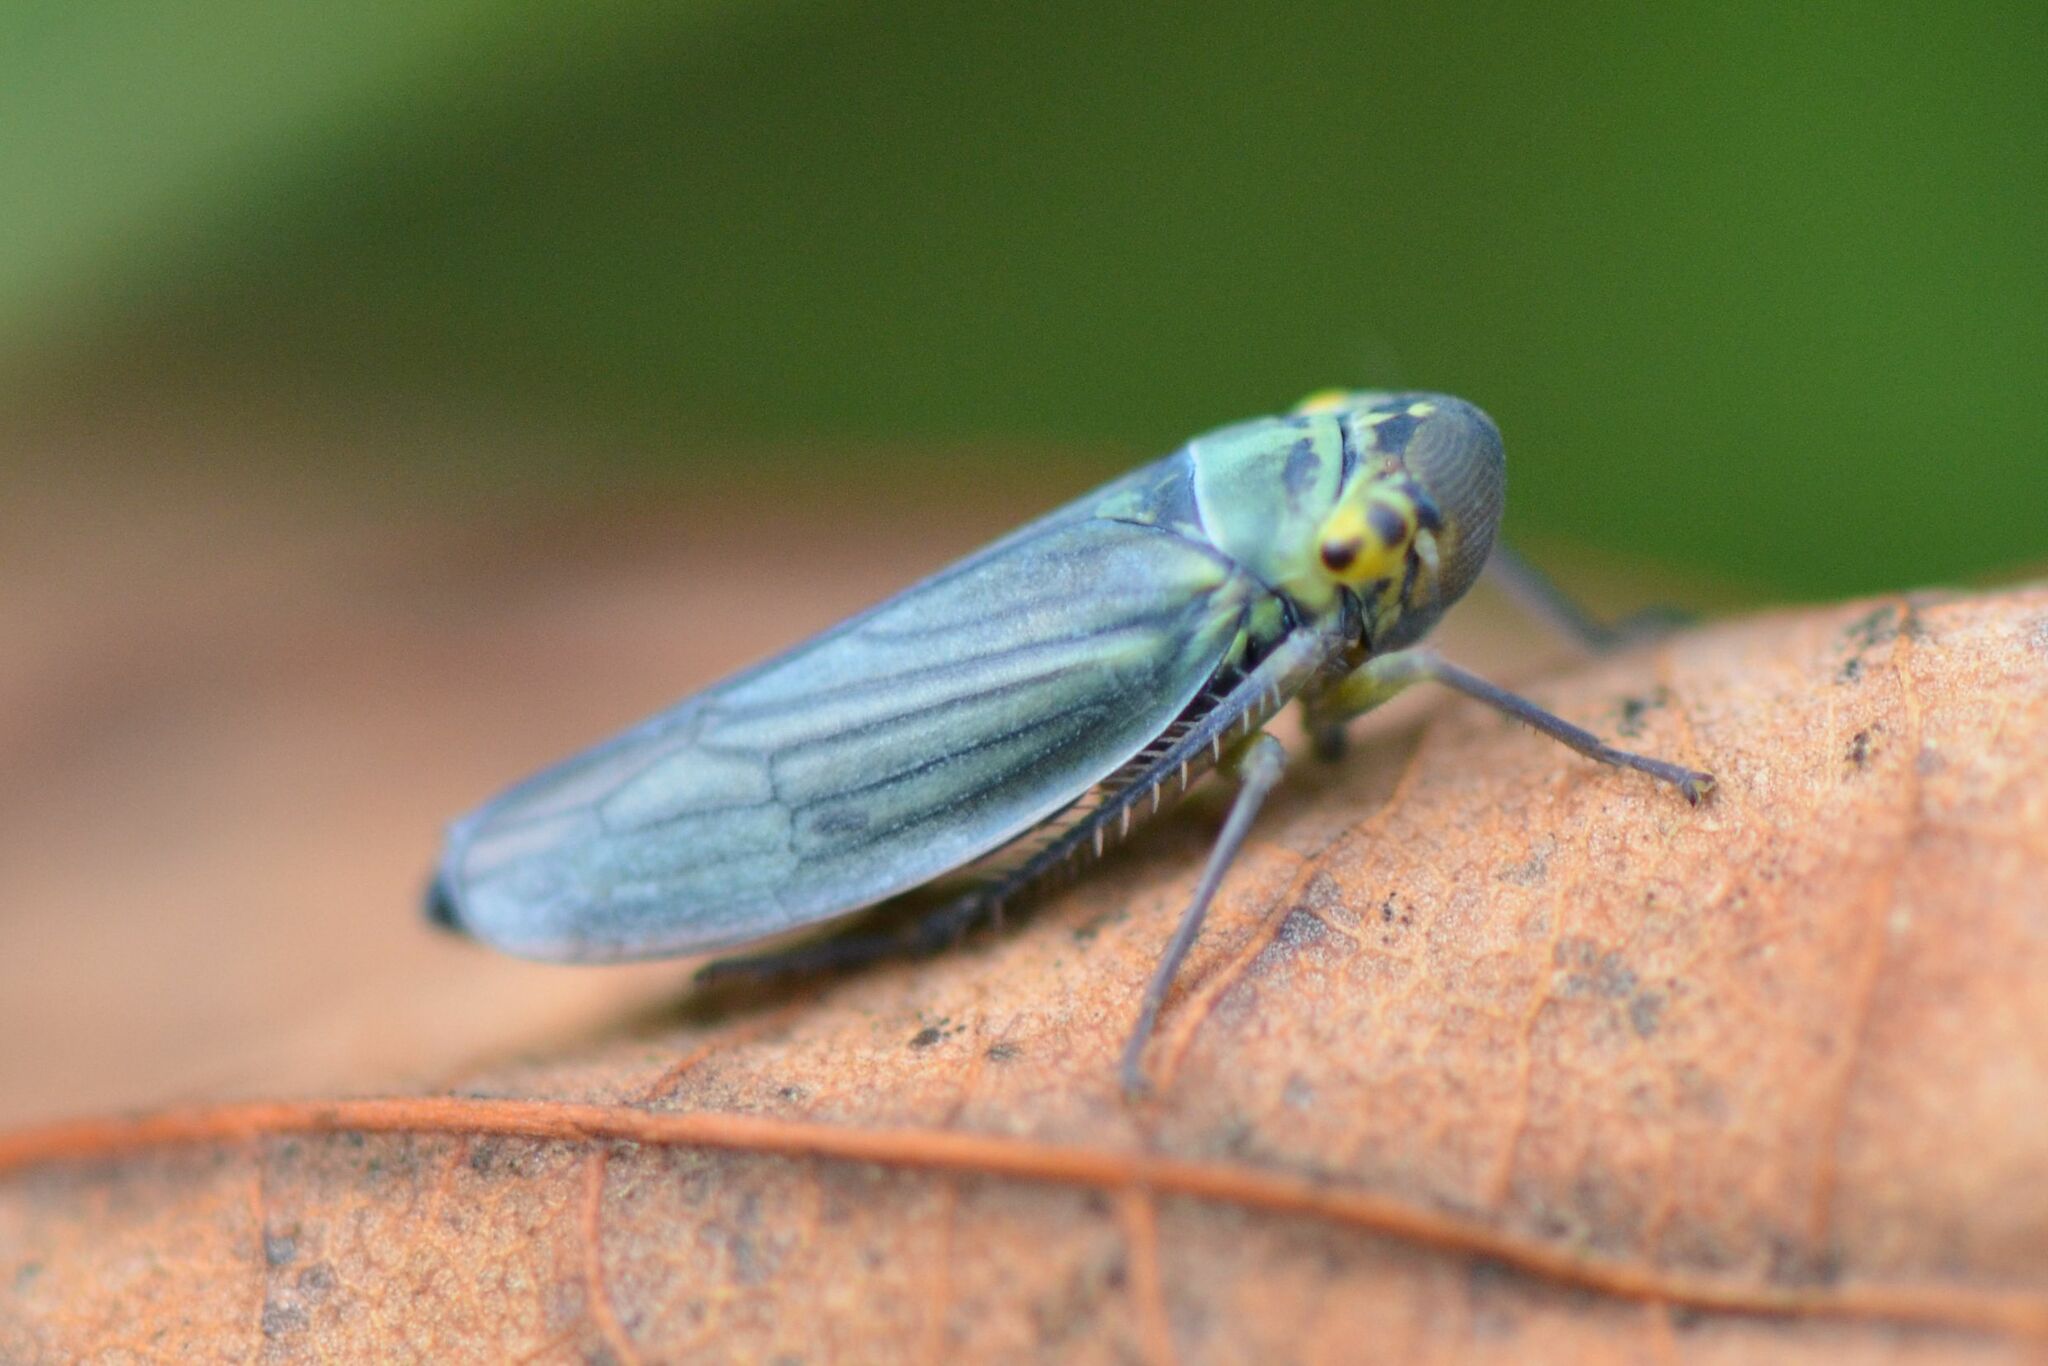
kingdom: Animalia
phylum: Arthropoda
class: Insecta
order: Hemiptera
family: Cicadellidae
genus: Cicadella
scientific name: Cicadella viridis
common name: Leafhopper
